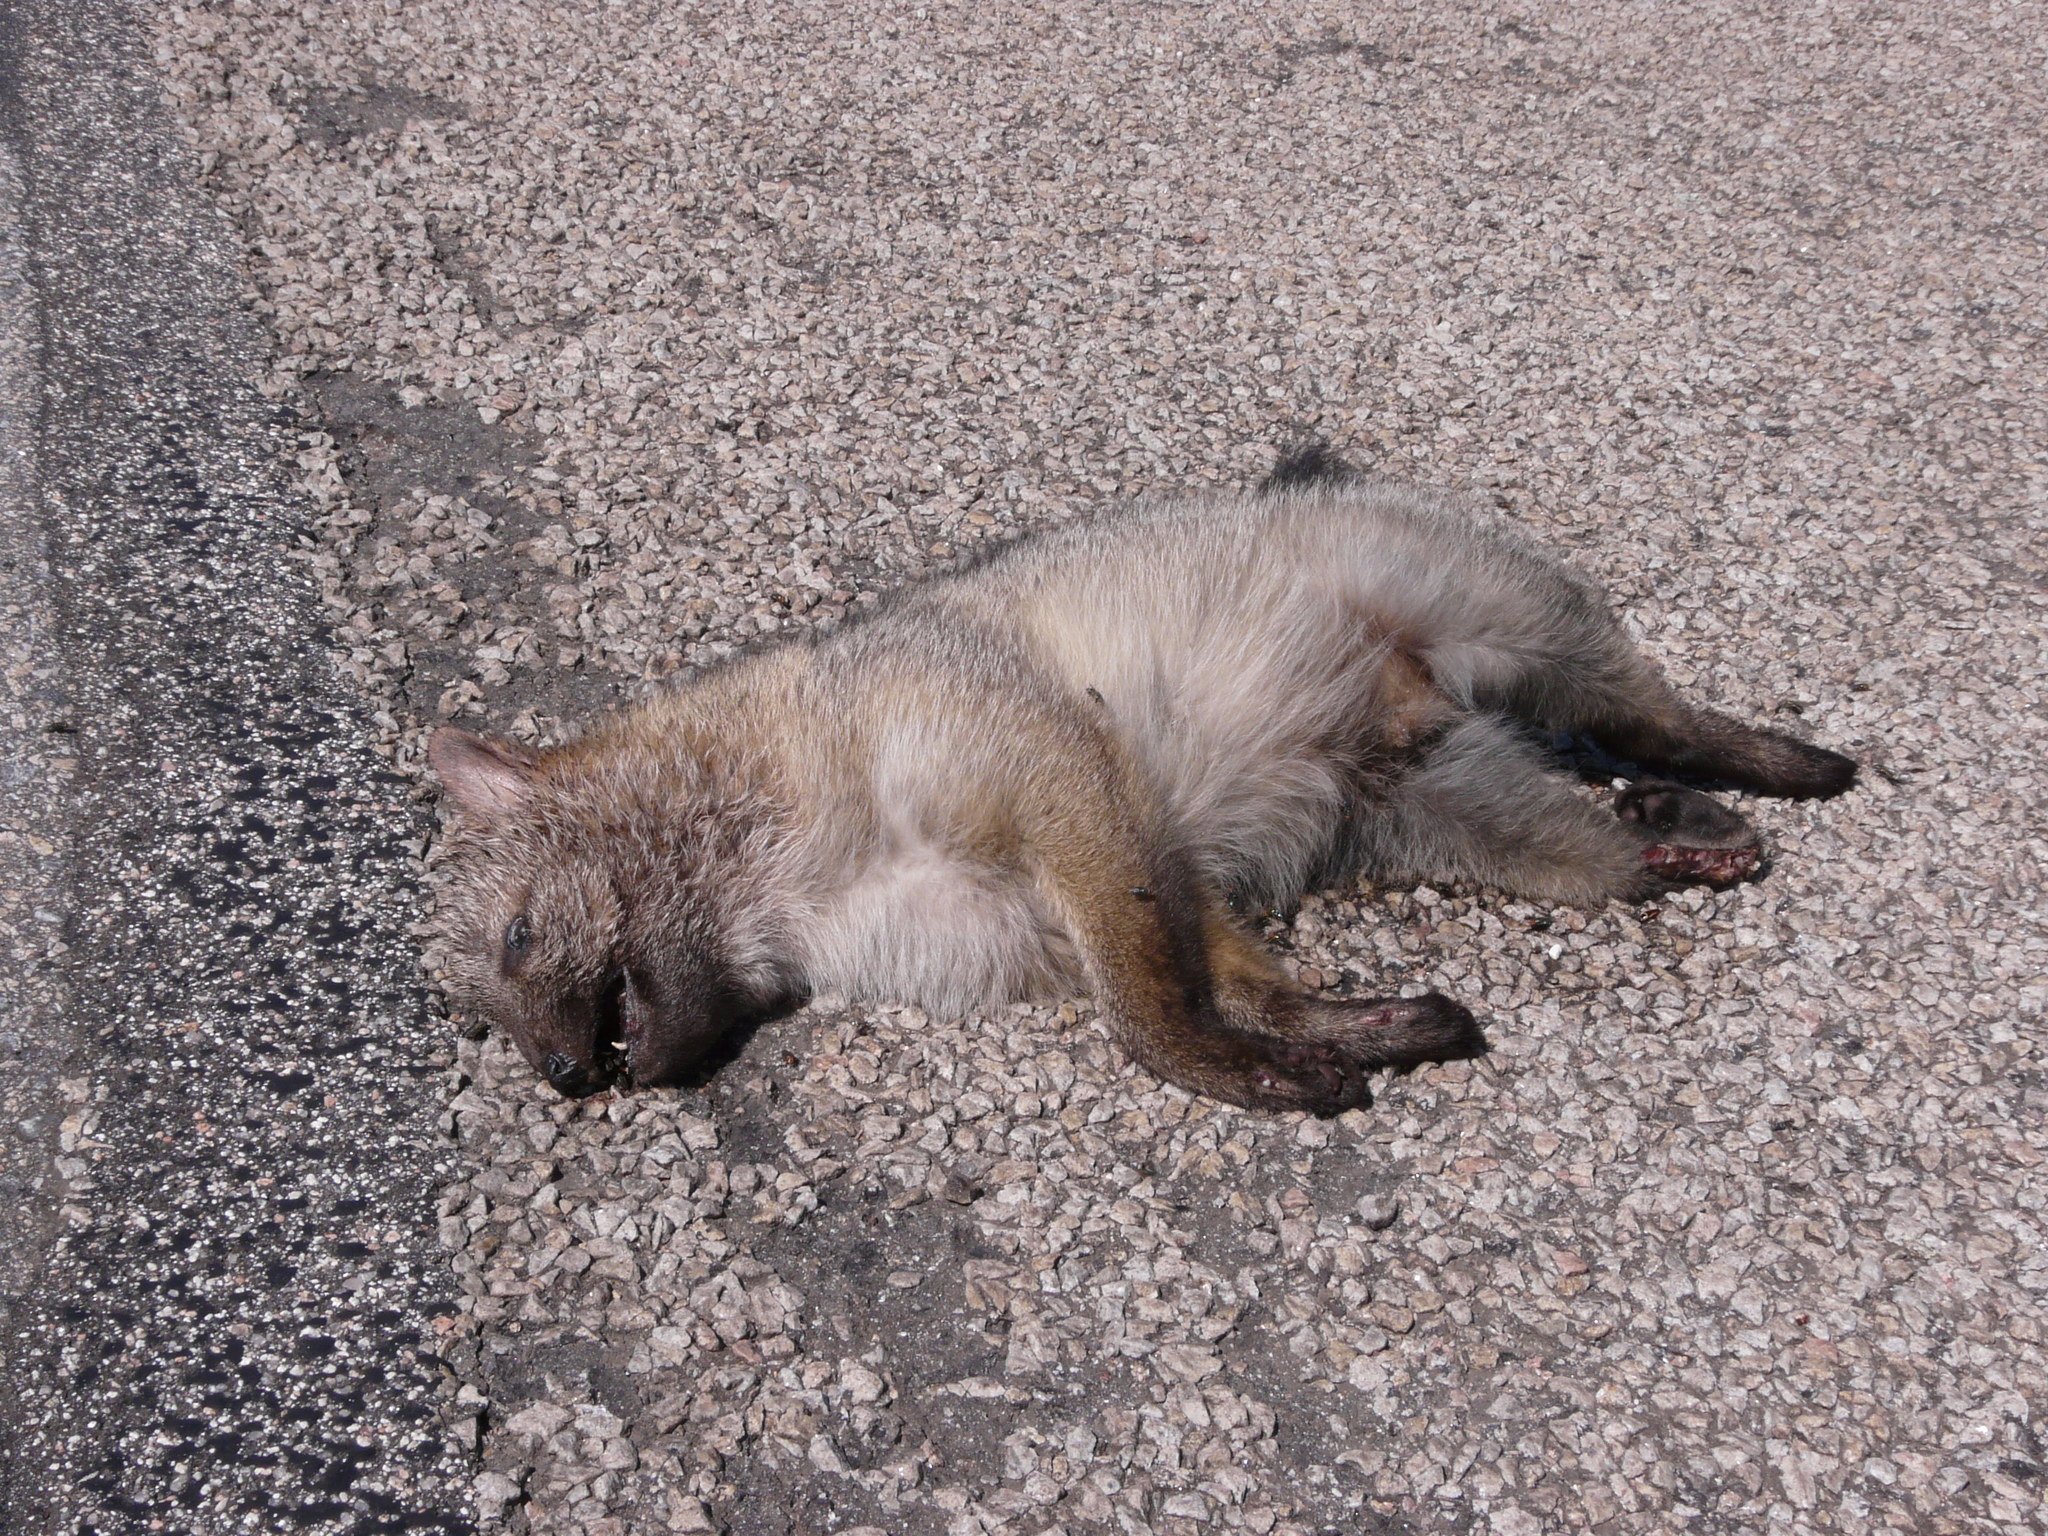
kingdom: Animalia
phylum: Chordata
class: Mammalia
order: Carnivora
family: Canidae
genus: Cerdocyon
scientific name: Cerdocyon thous
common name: Crab-eating fox
